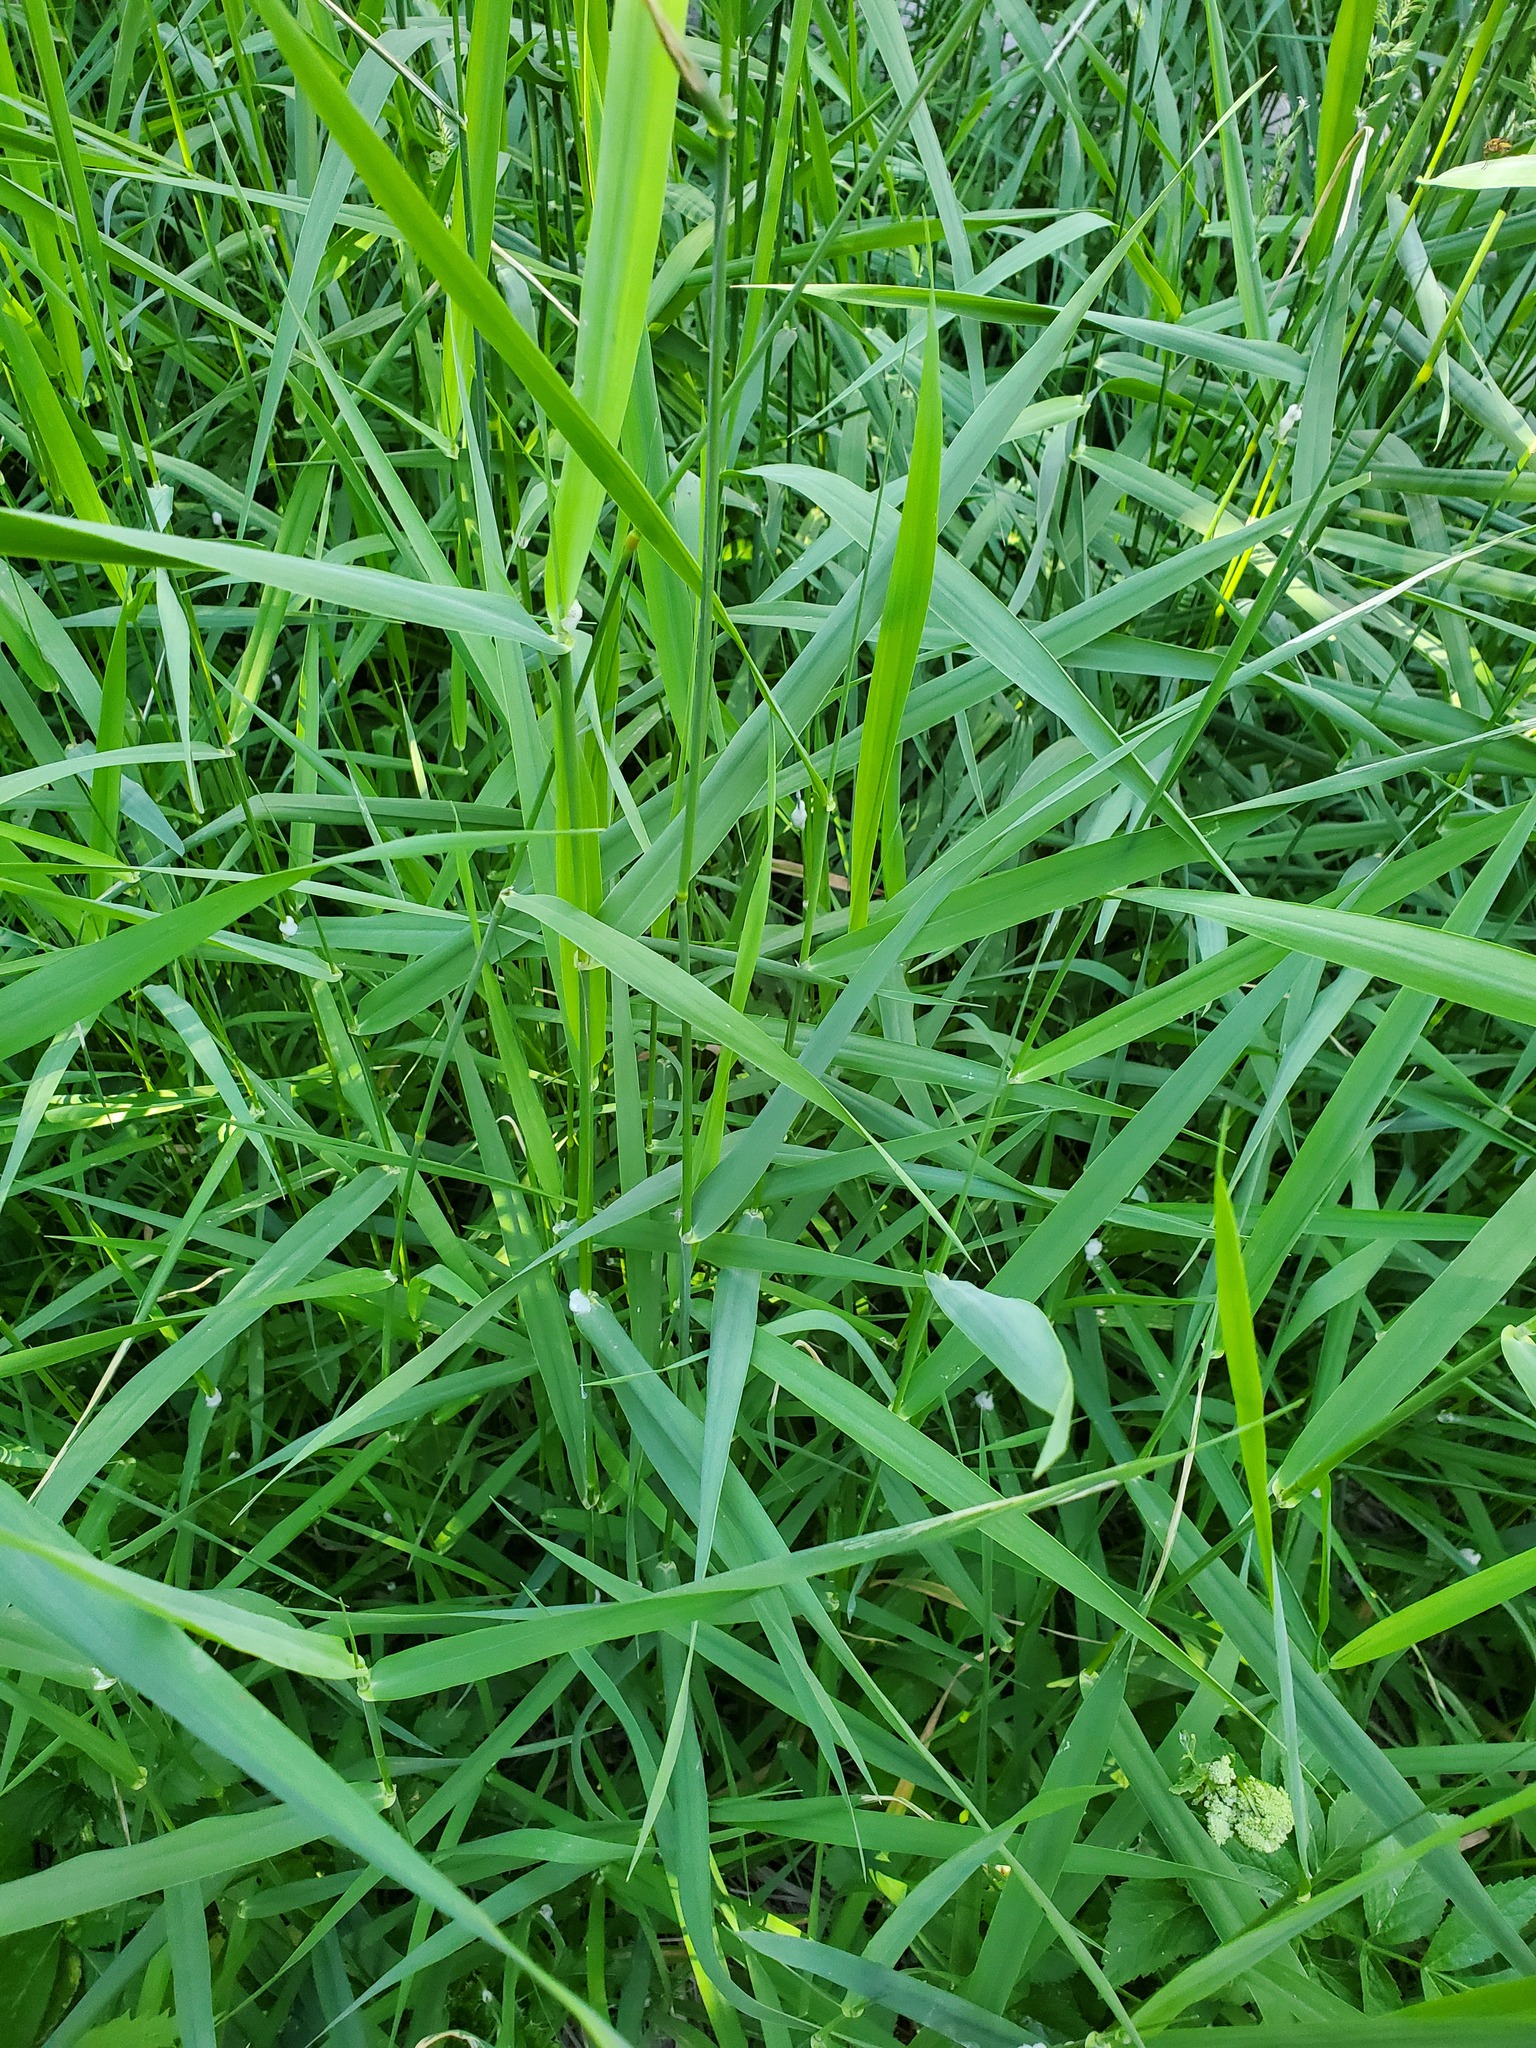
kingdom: Plantae
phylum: Tracheophyta
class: Liliopsida
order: Poales
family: Poaceae
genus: Phalaris
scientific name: Phalaris arundinacea
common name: Reed canary-grass
